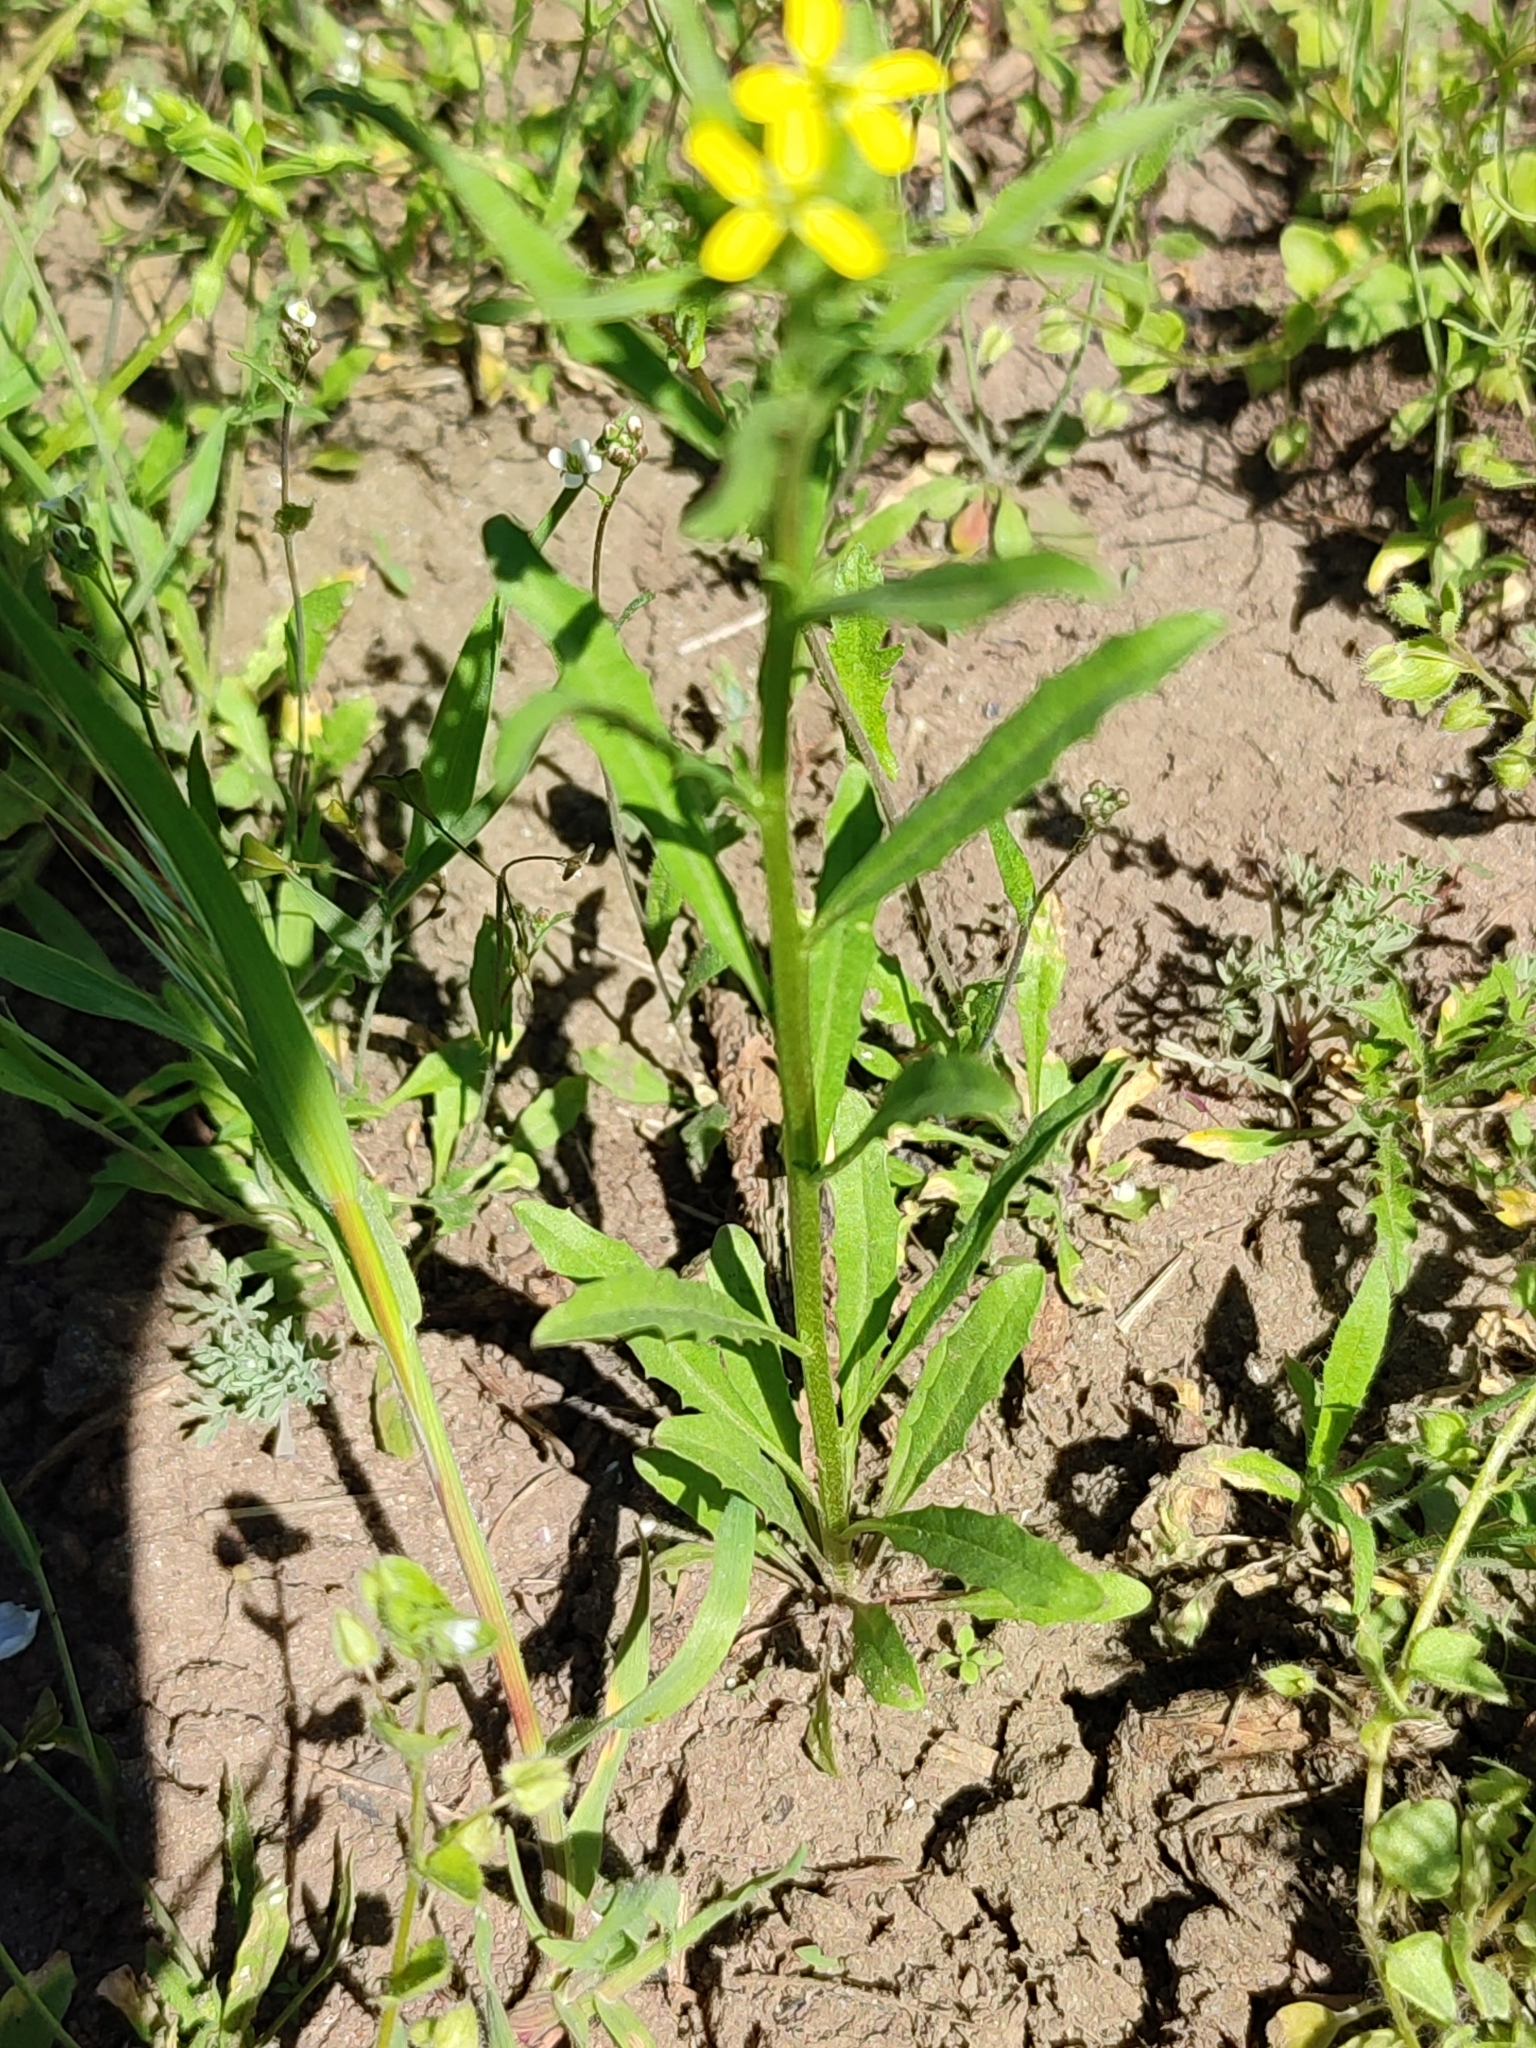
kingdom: Plantae
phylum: Tracheophyta
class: Magnoliopsida
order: Brassicales
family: Brassicaceae
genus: Erysimum
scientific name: Erysimum repandum
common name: Spreading wallflower
